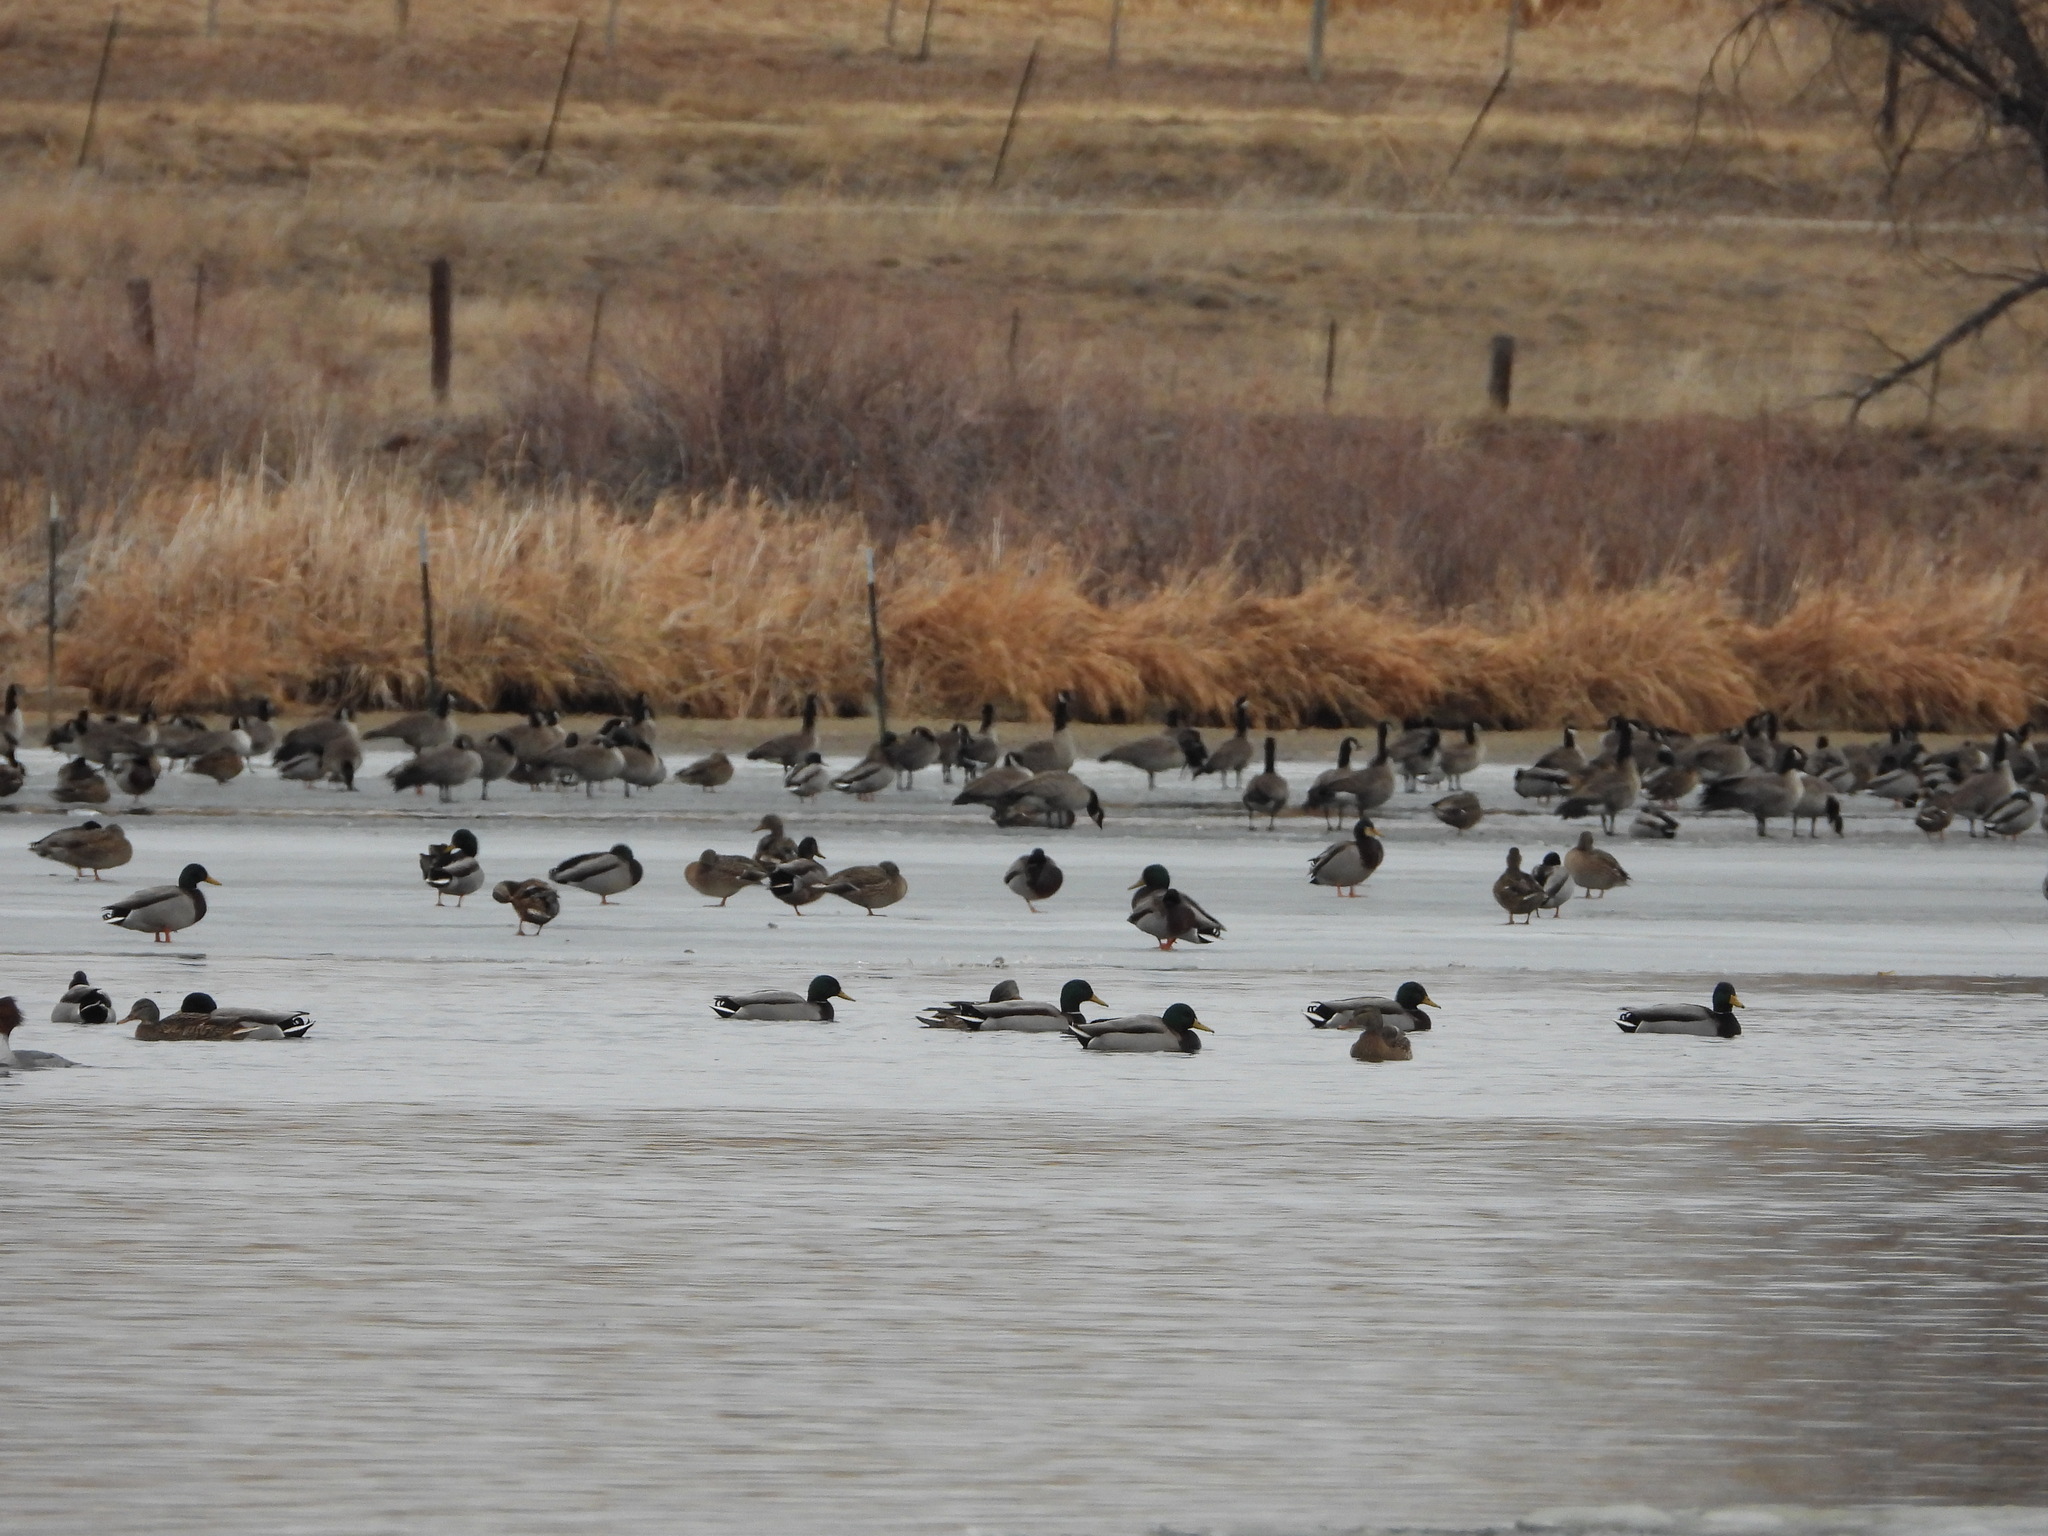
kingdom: Animalia
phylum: Chordata
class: Aves
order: Anseriformes
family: Anatidae
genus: Anas
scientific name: Anas platyrhynchos
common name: Mallard
